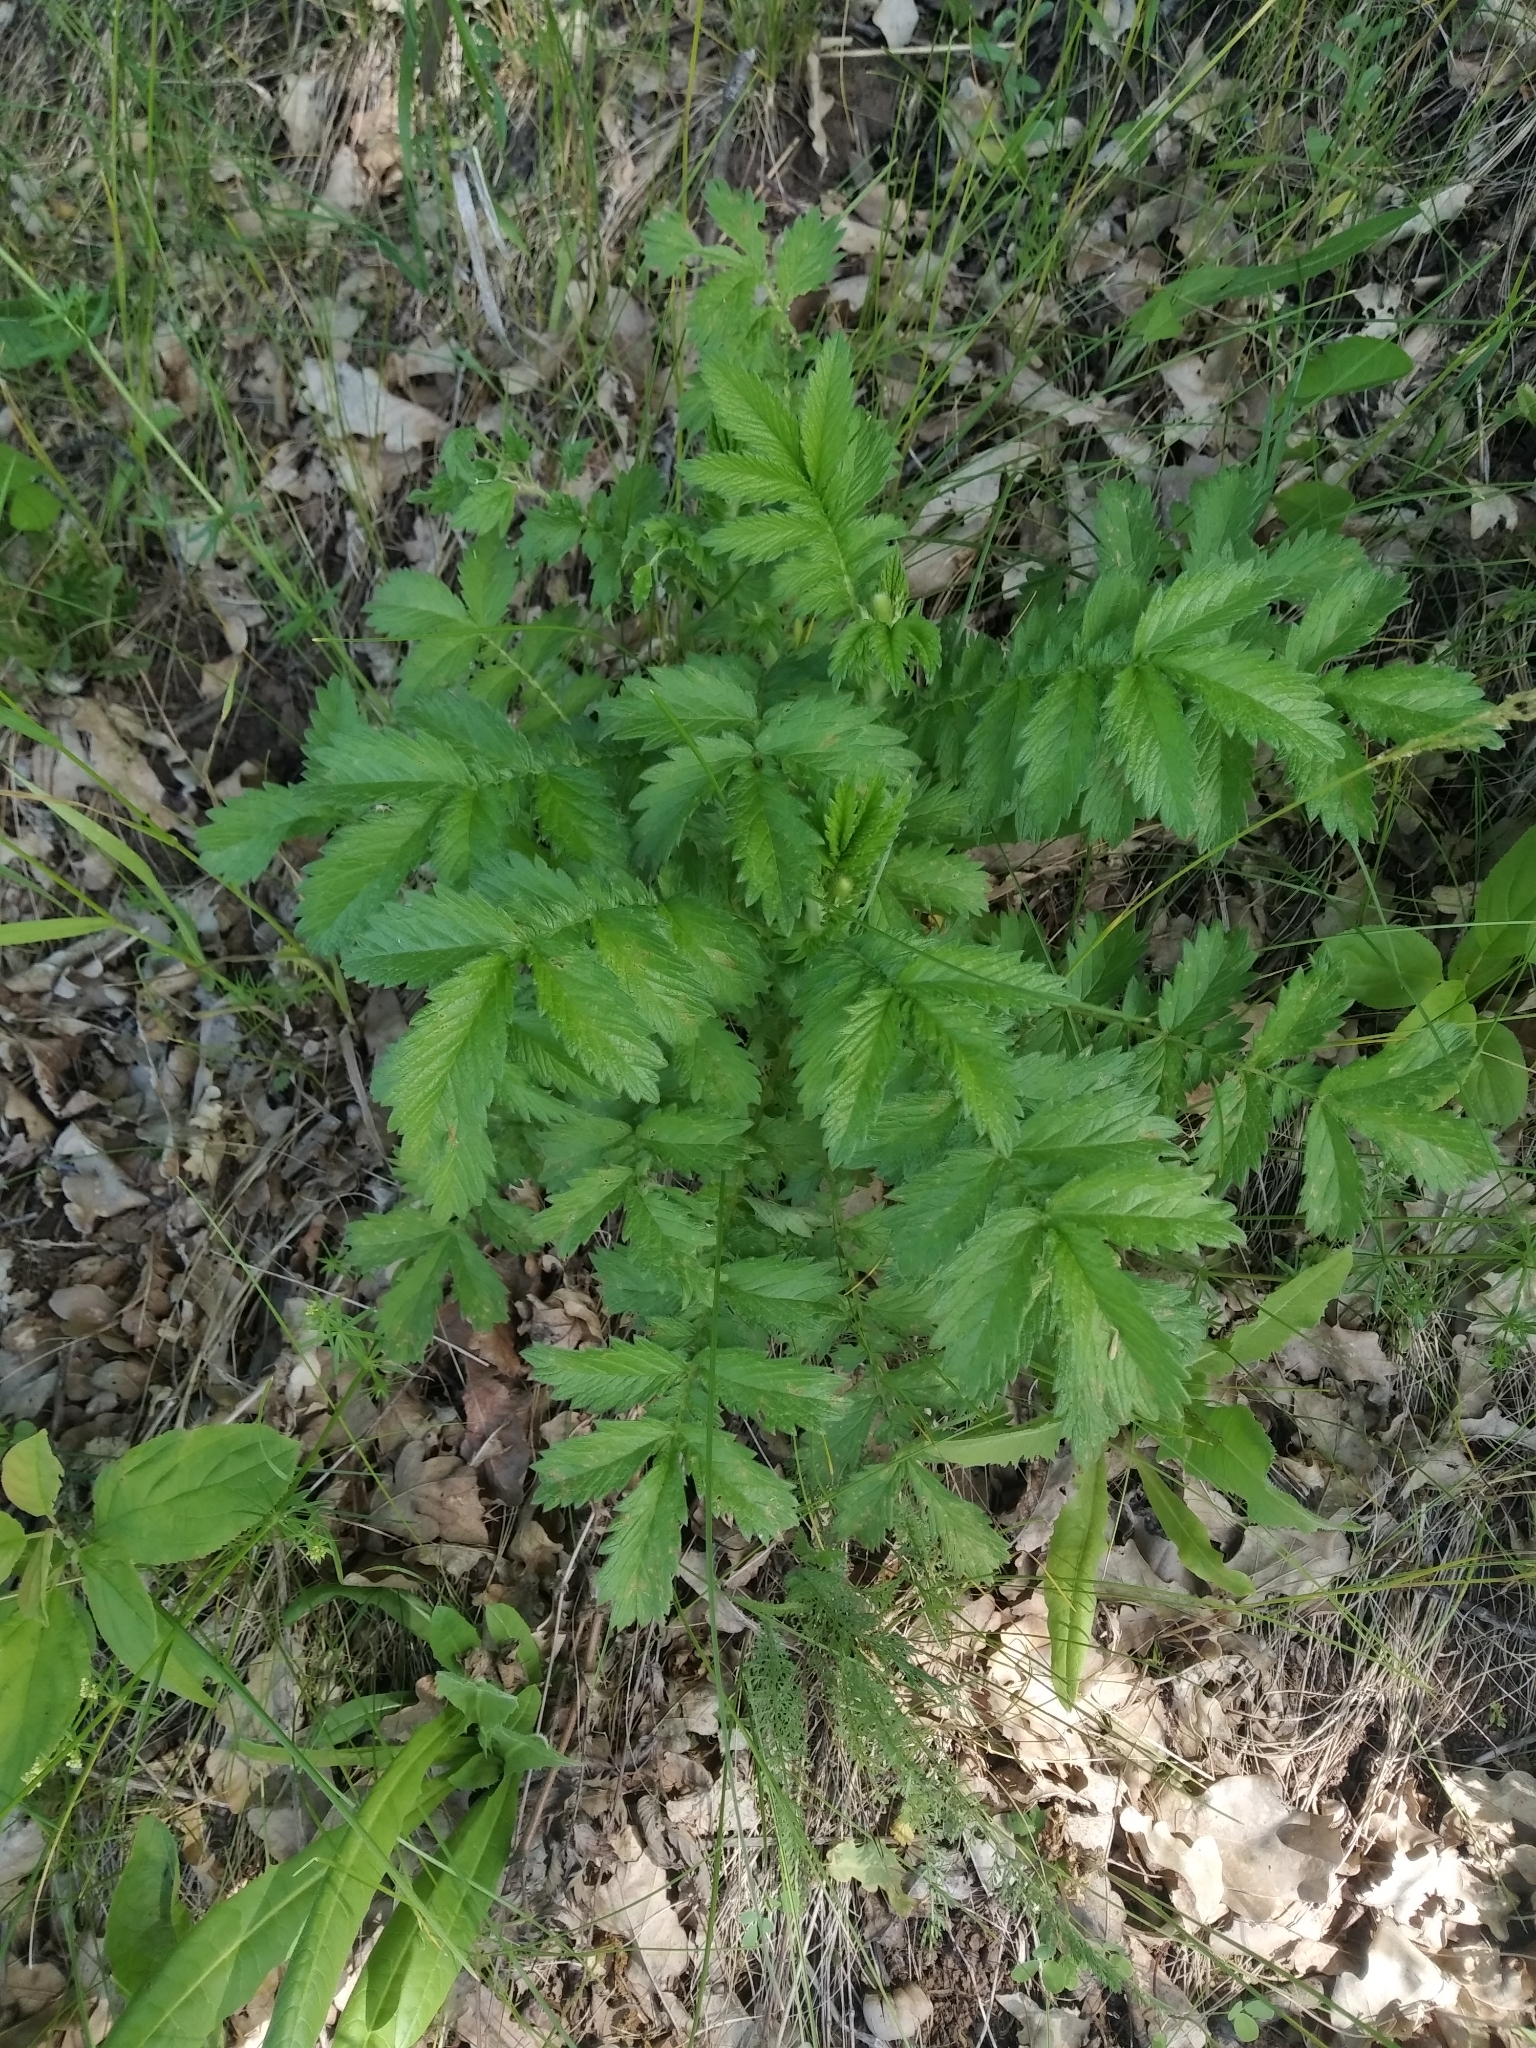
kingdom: Plantae
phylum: Tracheophyta
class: Magnoliopsida
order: Rosales
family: Rosaceae
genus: Agrimonia
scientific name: Agrimonia eupatoria
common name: Agrimony
